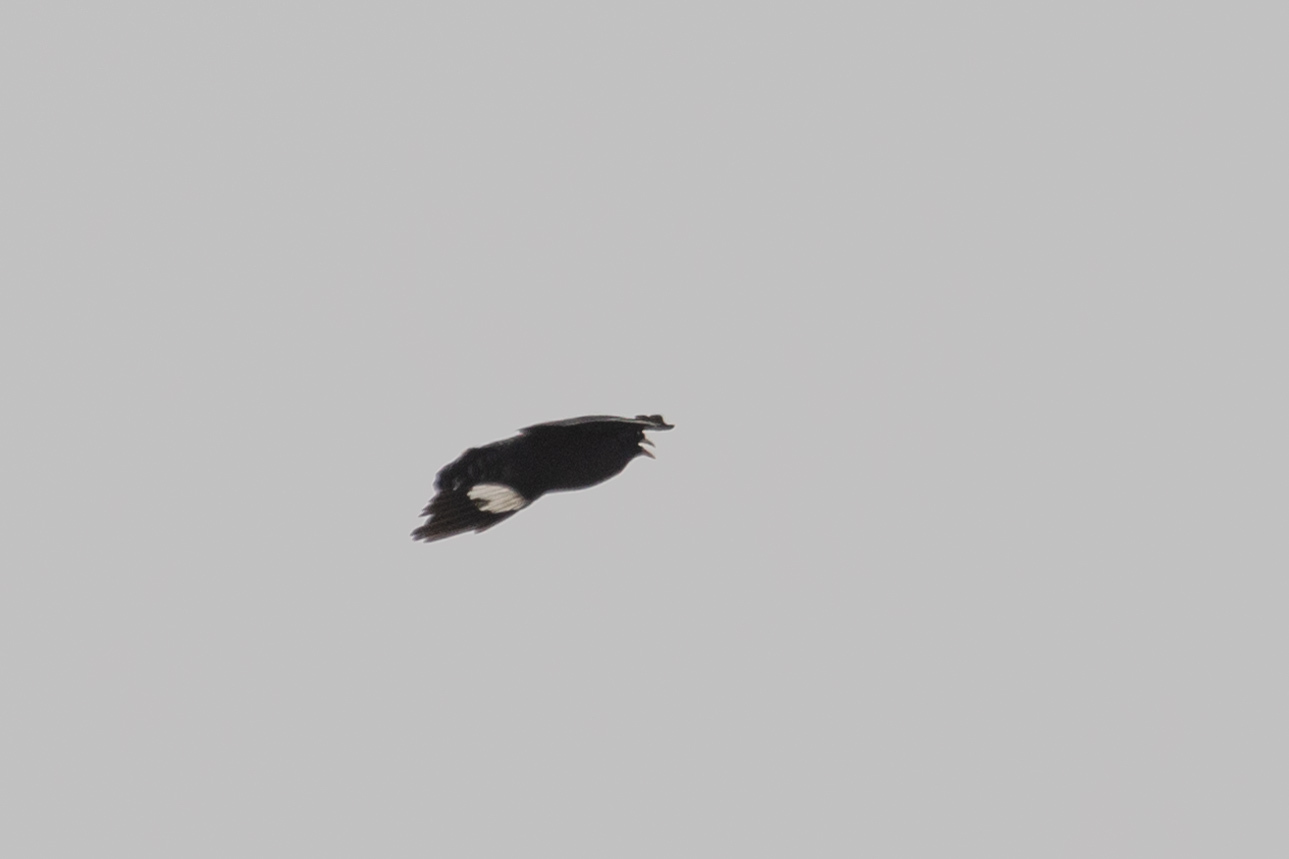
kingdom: Animalia
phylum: Chordata
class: Aves
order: Passeriformes
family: Sturnidae
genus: Acridotheres
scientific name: Acridotheres cristatellus
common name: Crested myna
